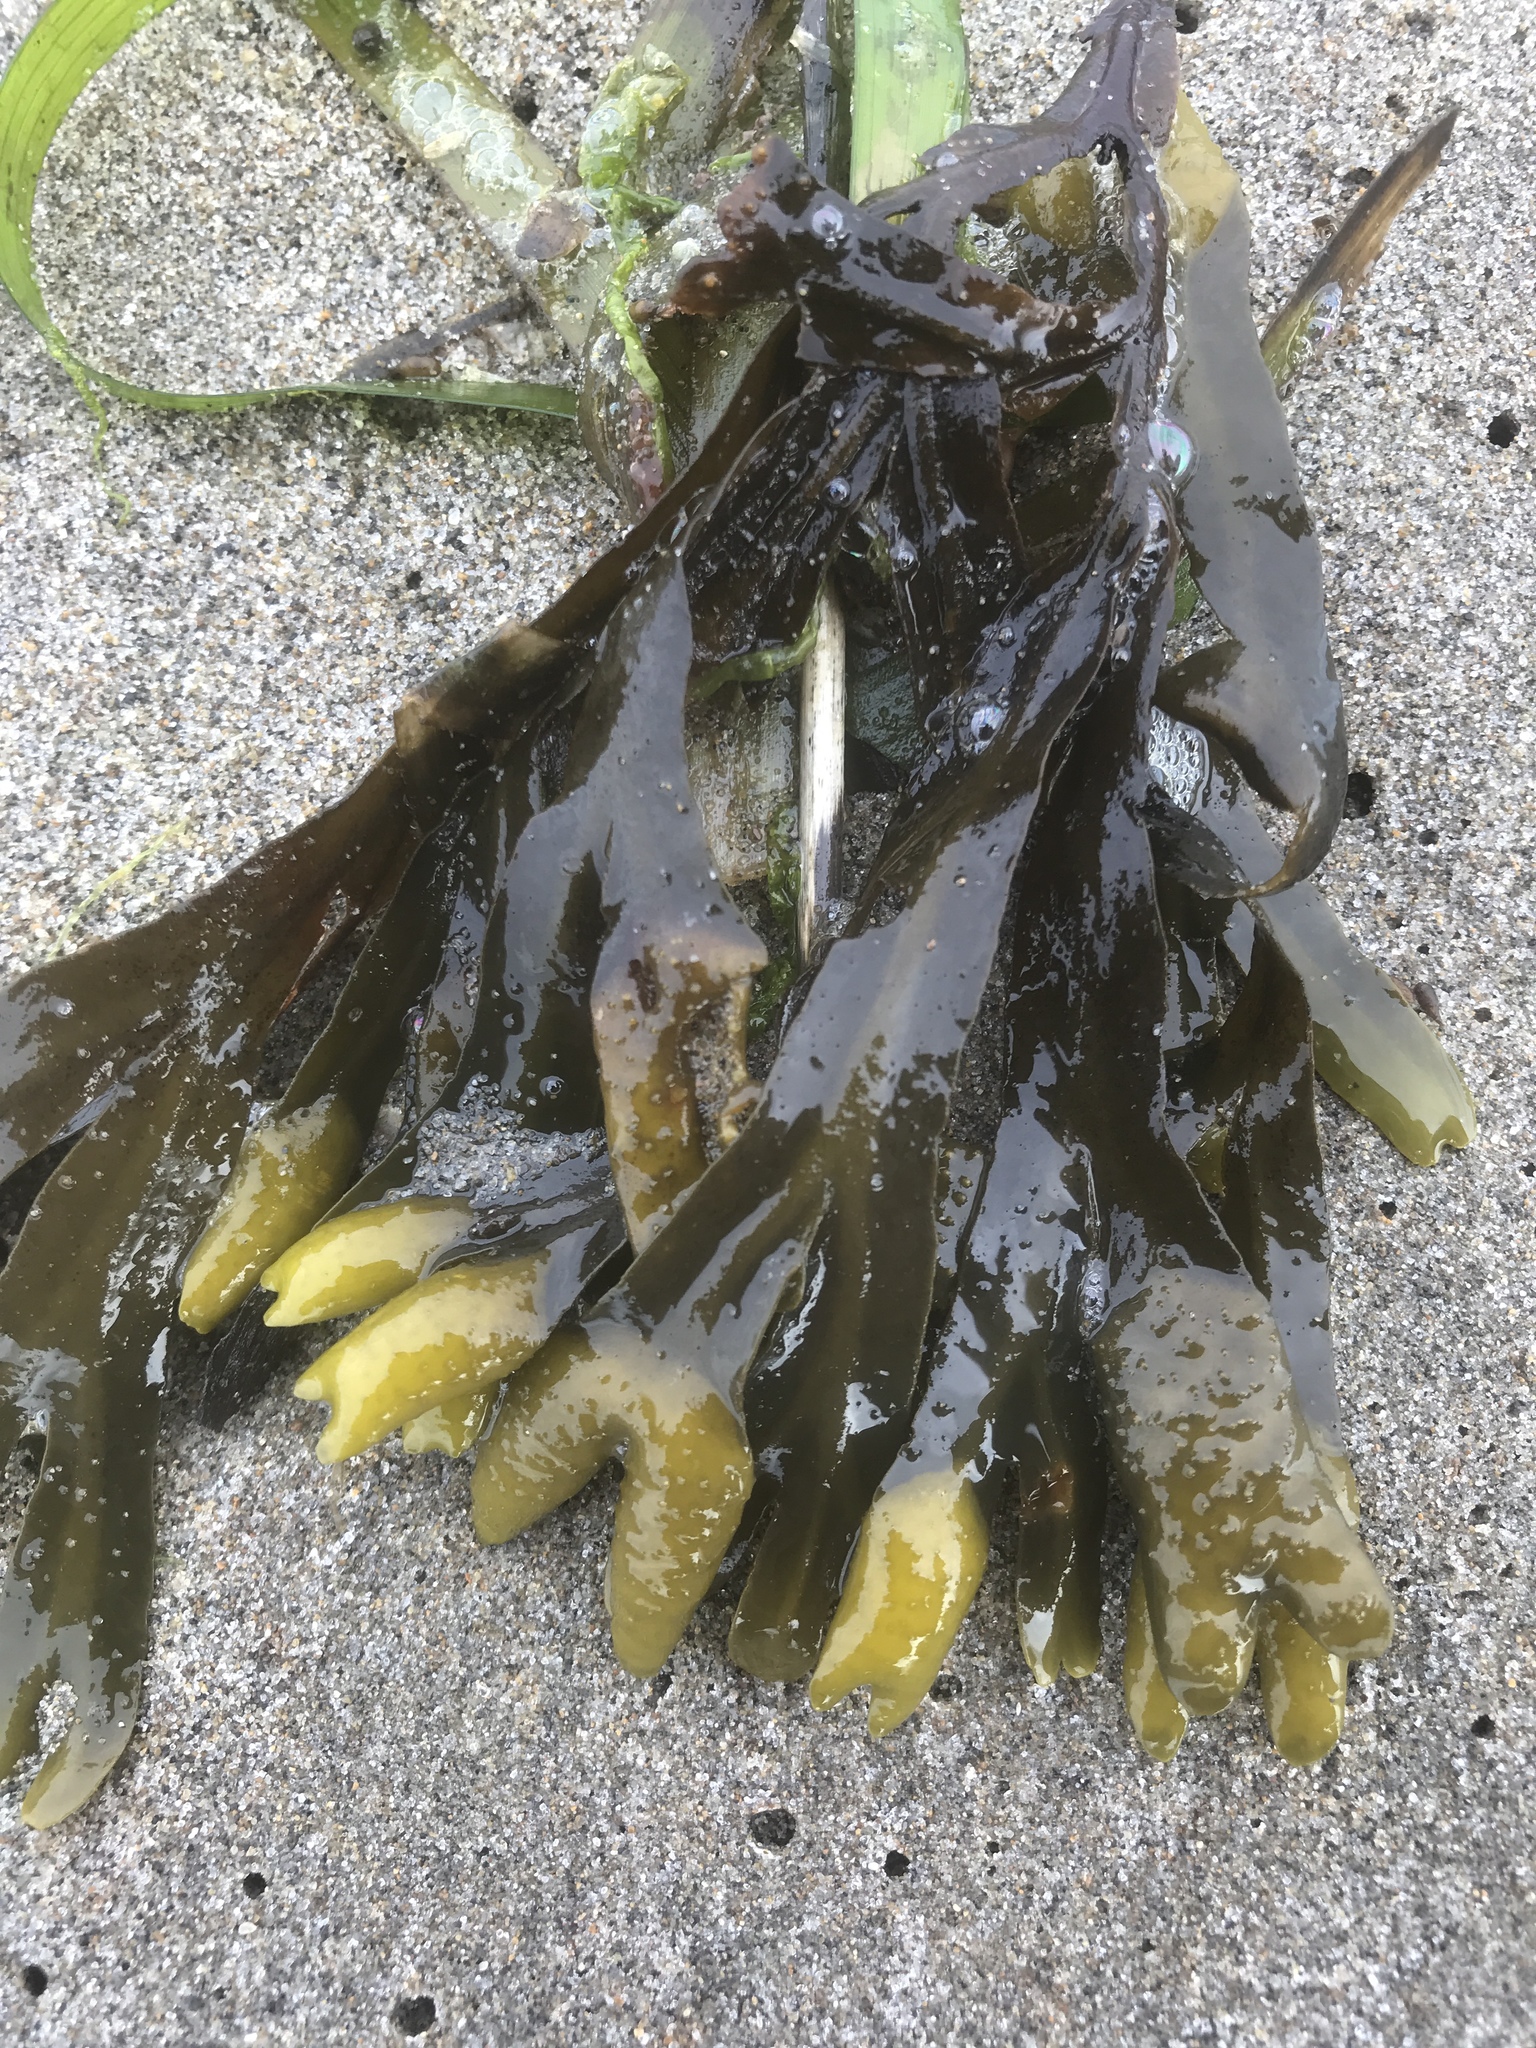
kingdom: Chromista
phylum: Ochrophyta
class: Phaeophyceae
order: Fucales
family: Fucaceae
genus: Fucus
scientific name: Fucus distichus
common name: Rockweed
